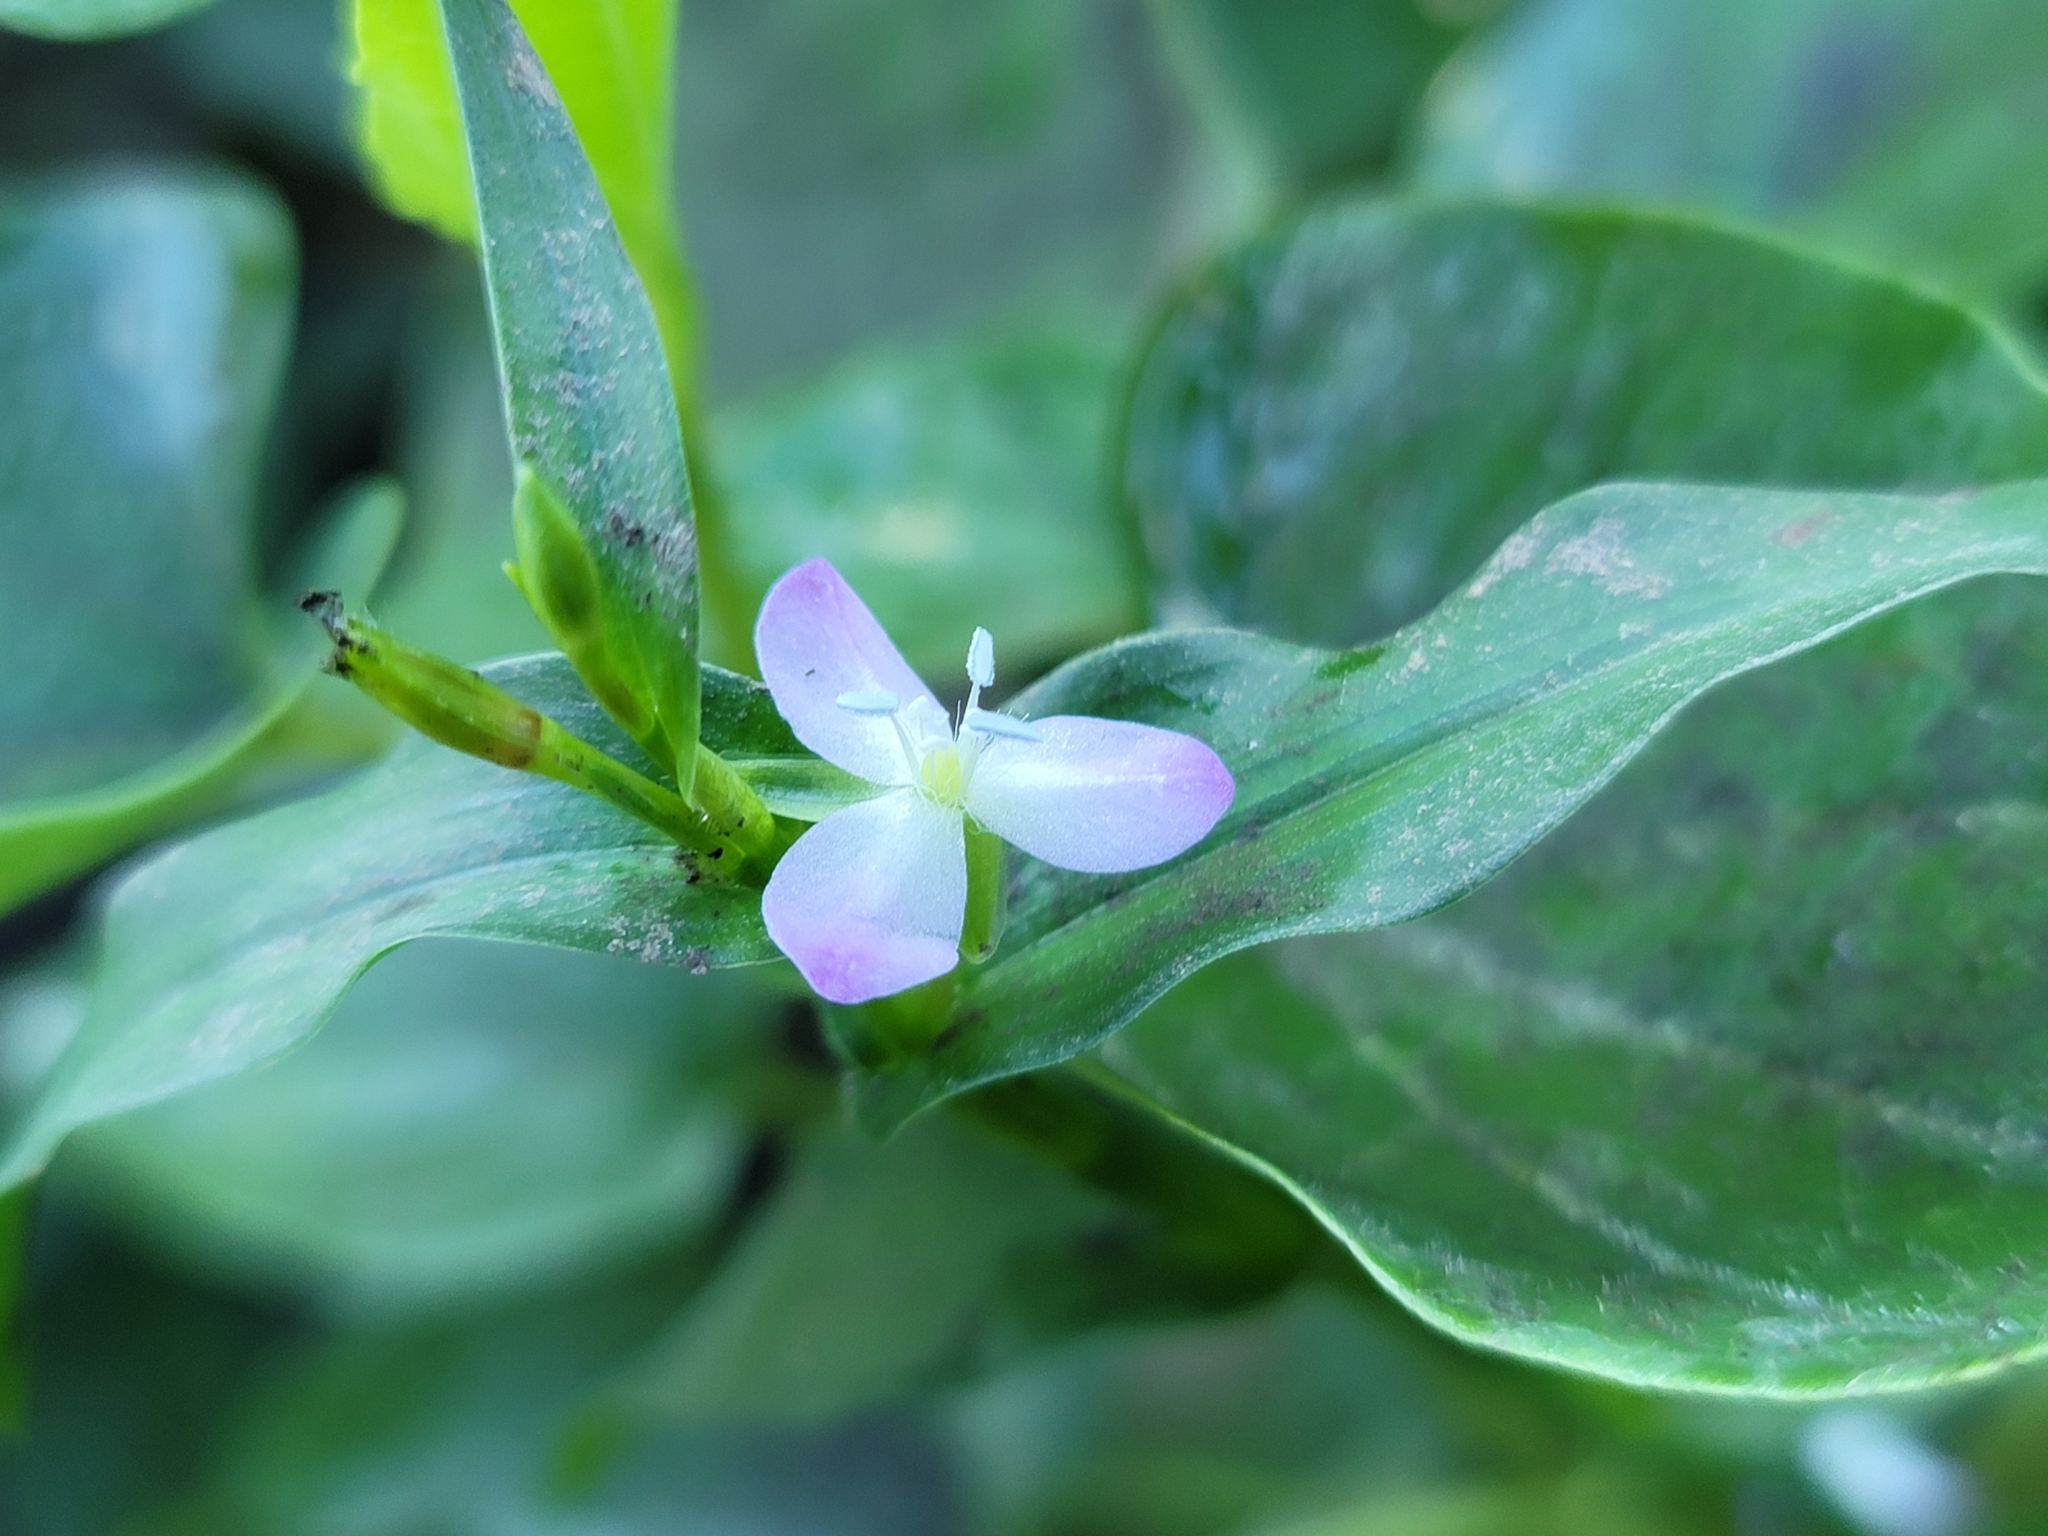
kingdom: Plantae
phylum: Tracheophyta
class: Liliopsida
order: Commelinales
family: Commelinaceae
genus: Murdannia
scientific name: Murdannia keisak
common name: Wartremoving herb
